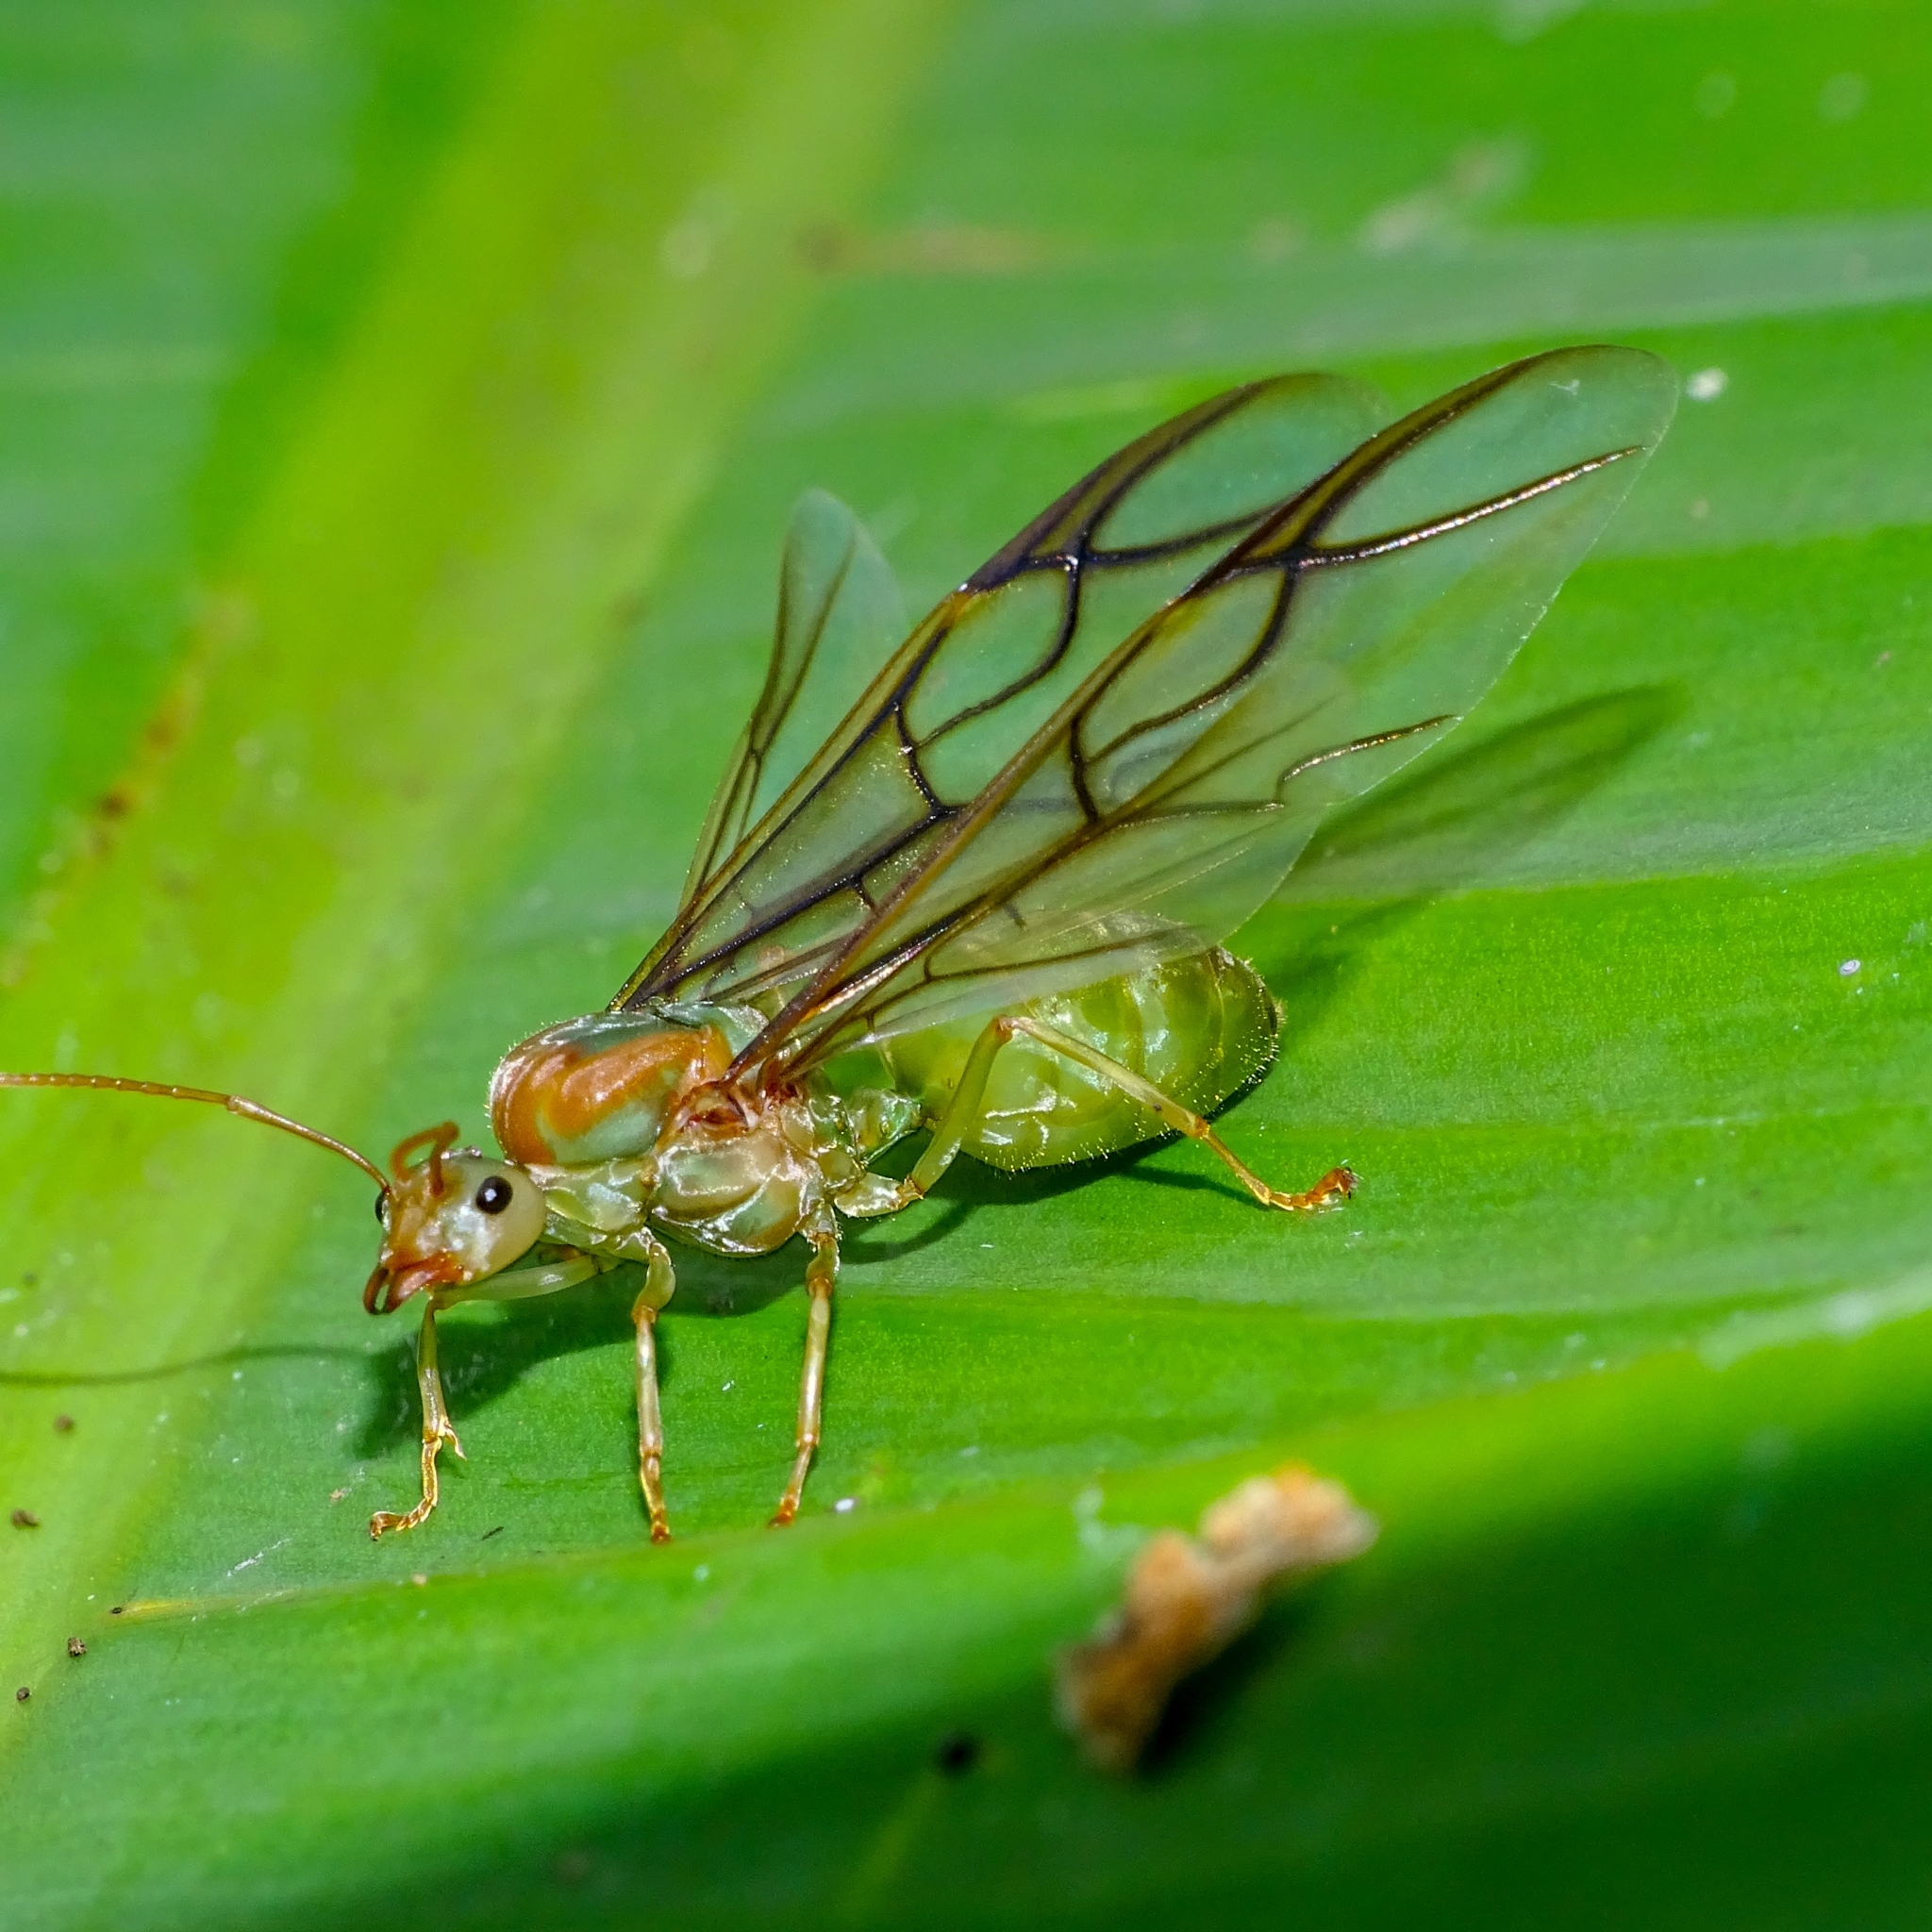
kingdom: Animalia
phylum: Arthropoda
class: Insecta
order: Hymenoptera
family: Formicidae
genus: Oecophylla
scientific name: Oecophylla smaragdina
